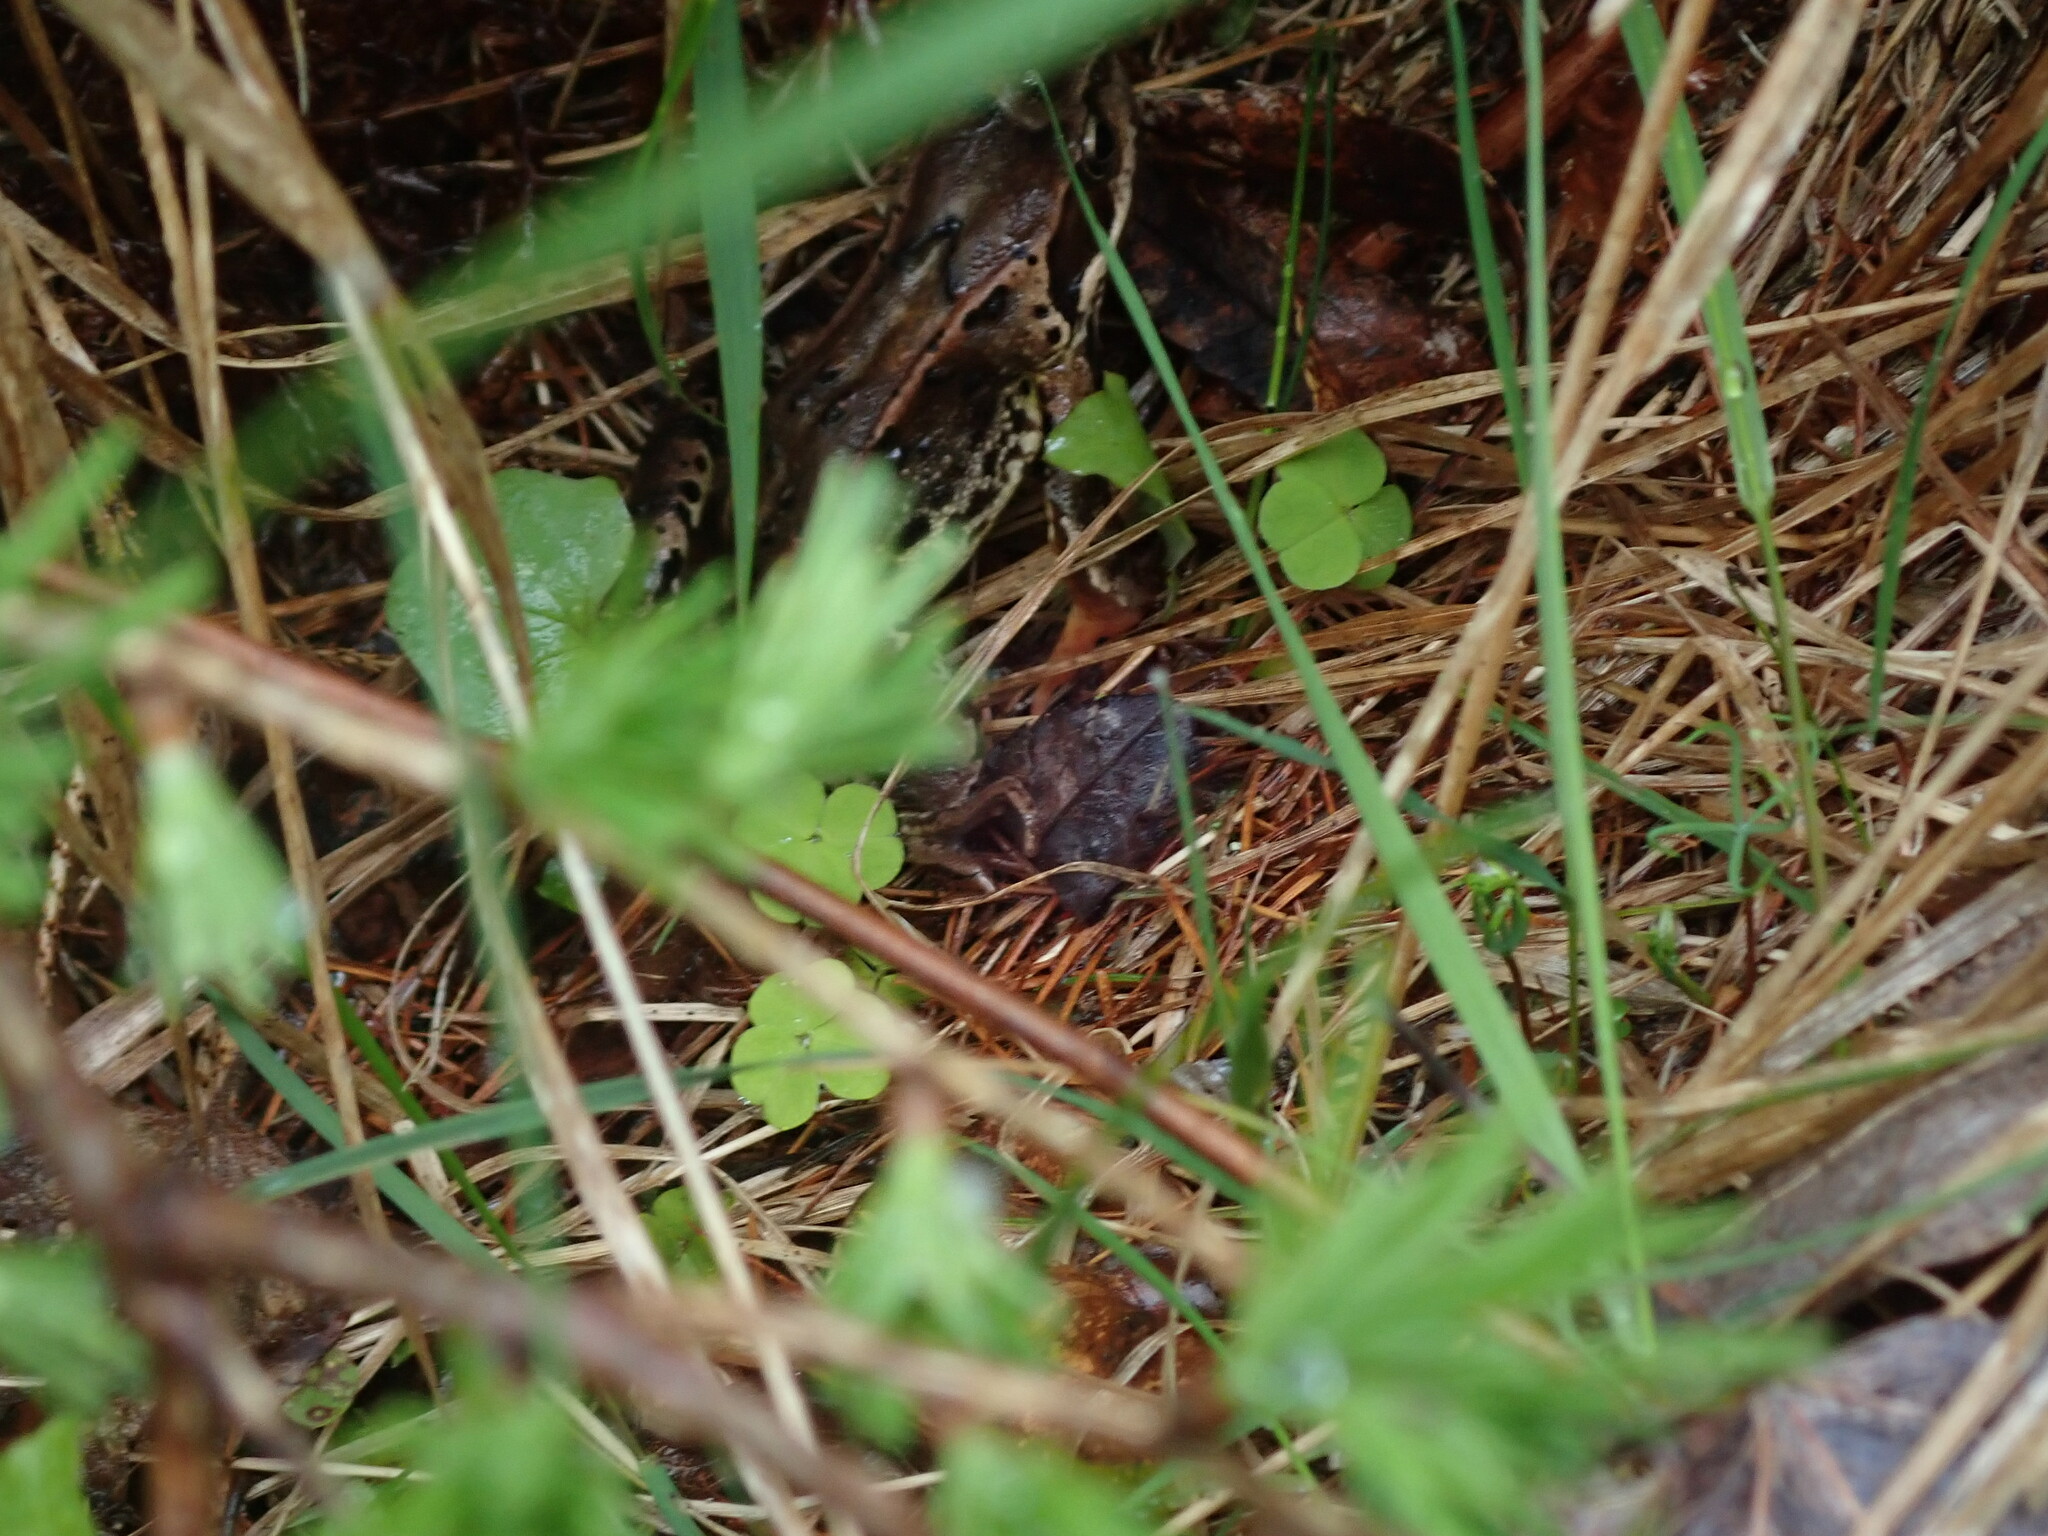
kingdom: Animalia
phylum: Chordata
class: Amphibia
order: Anura
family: Ranidae
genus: Rana
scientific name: Rana temporaria
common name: Common frog
